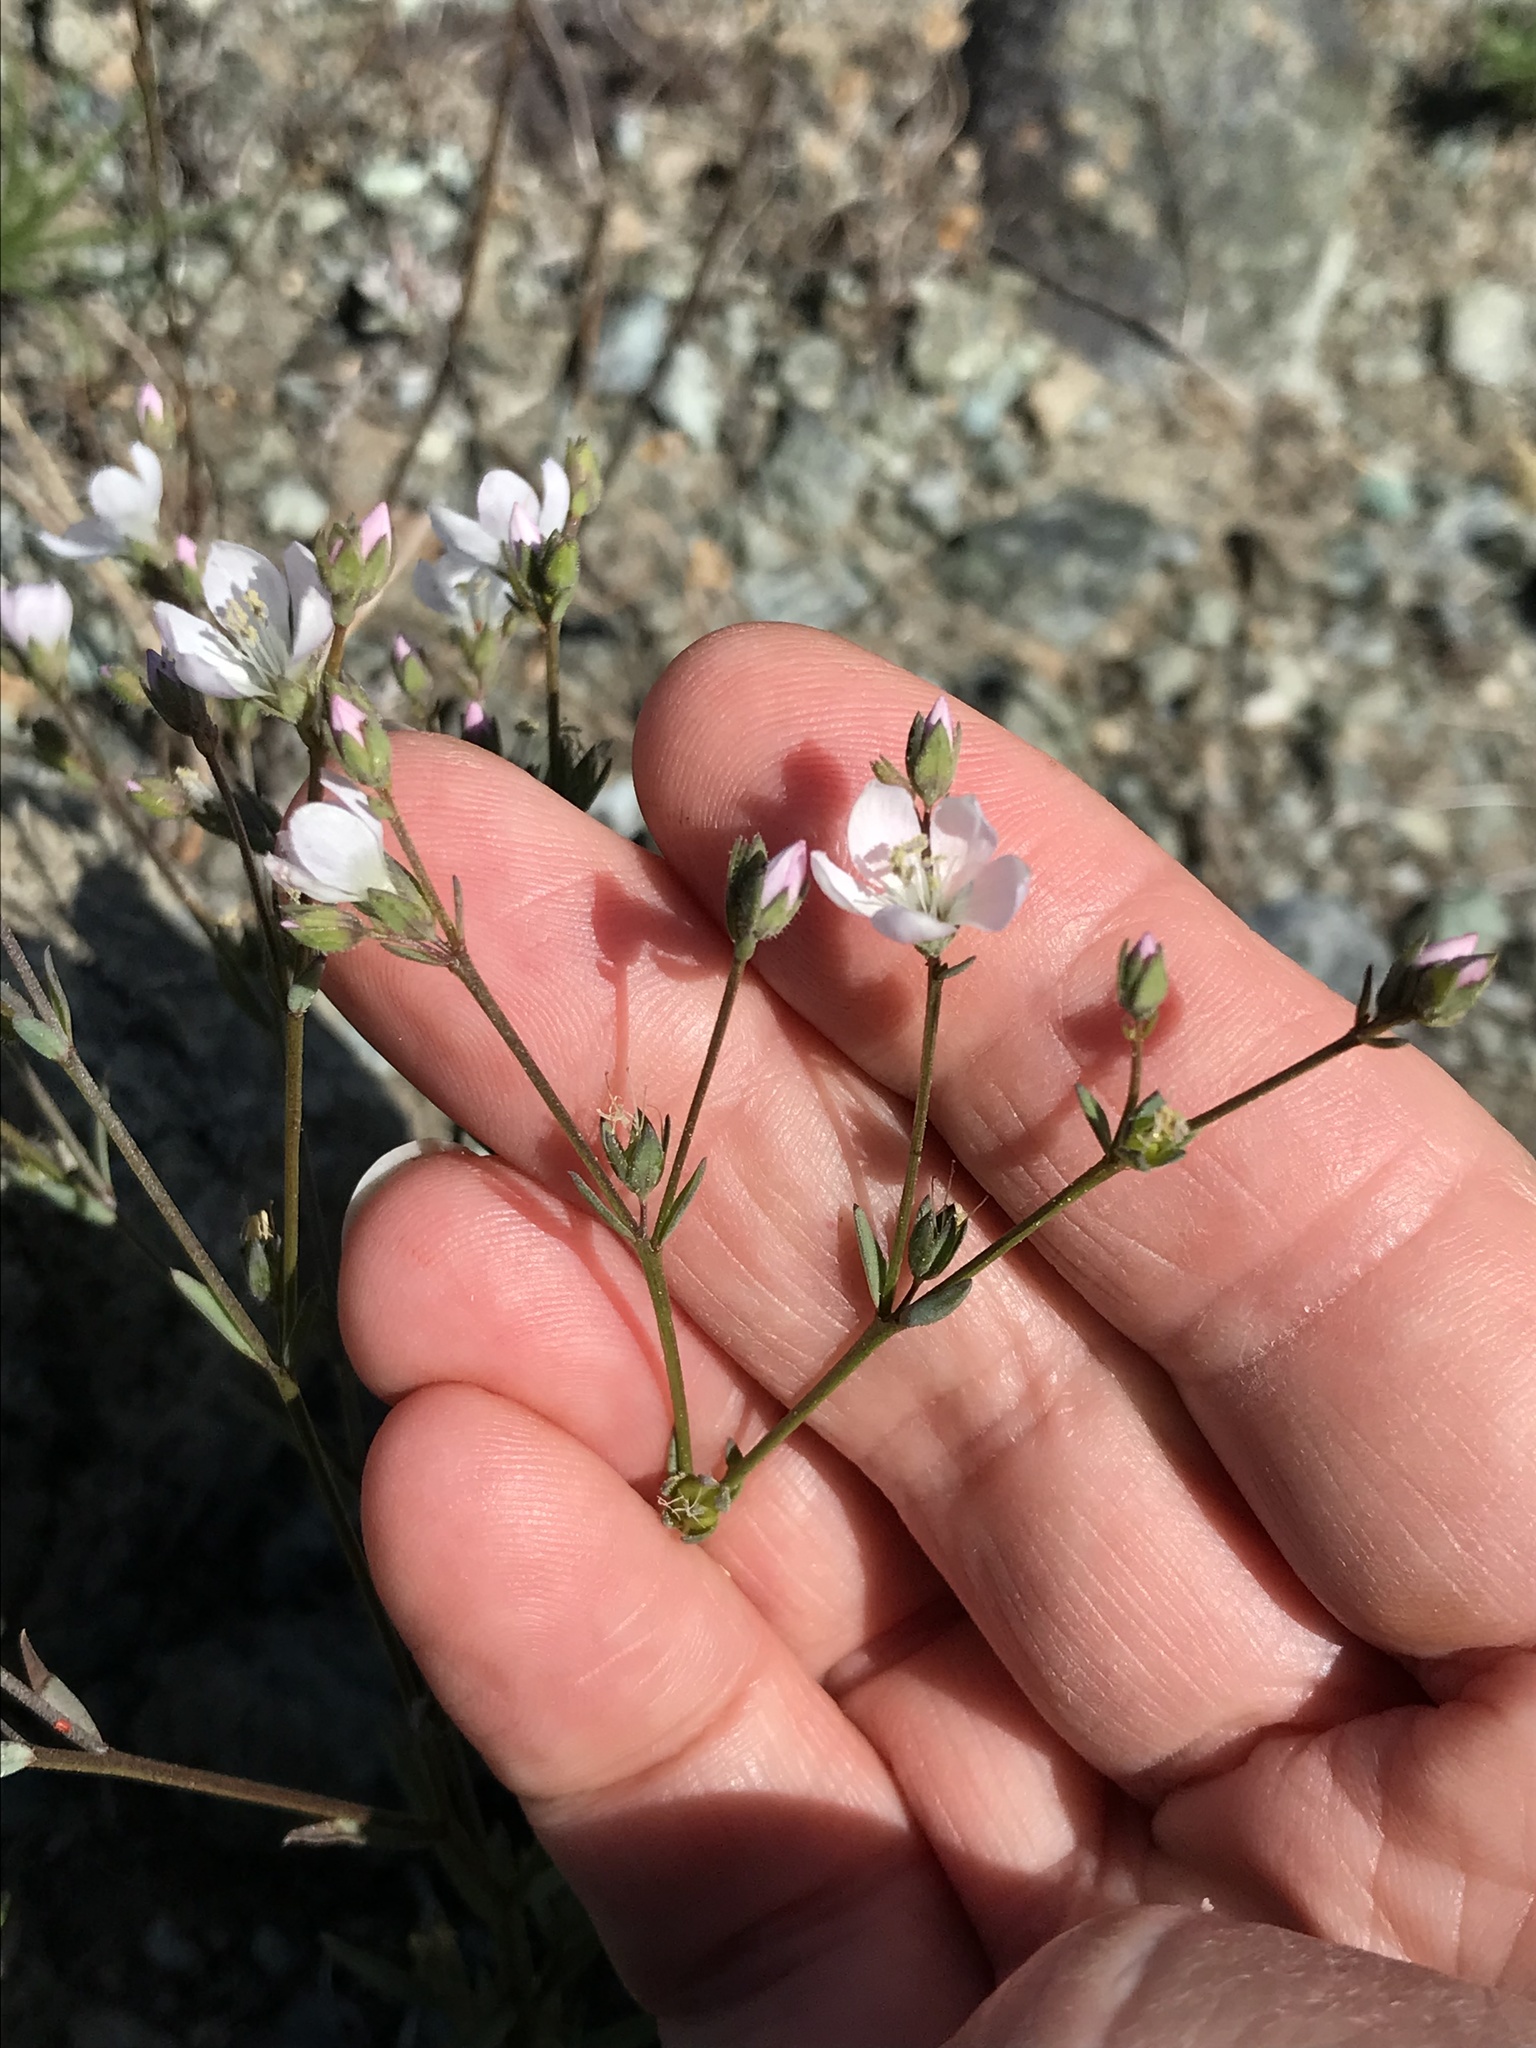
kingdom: Plantae
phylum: Tracheophyta
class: Magnoliopsida
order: Malpighiales
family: Linaceae
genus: Hesperolinon
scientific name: Hesperolinon congestum
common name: Marin dwarf-flax
